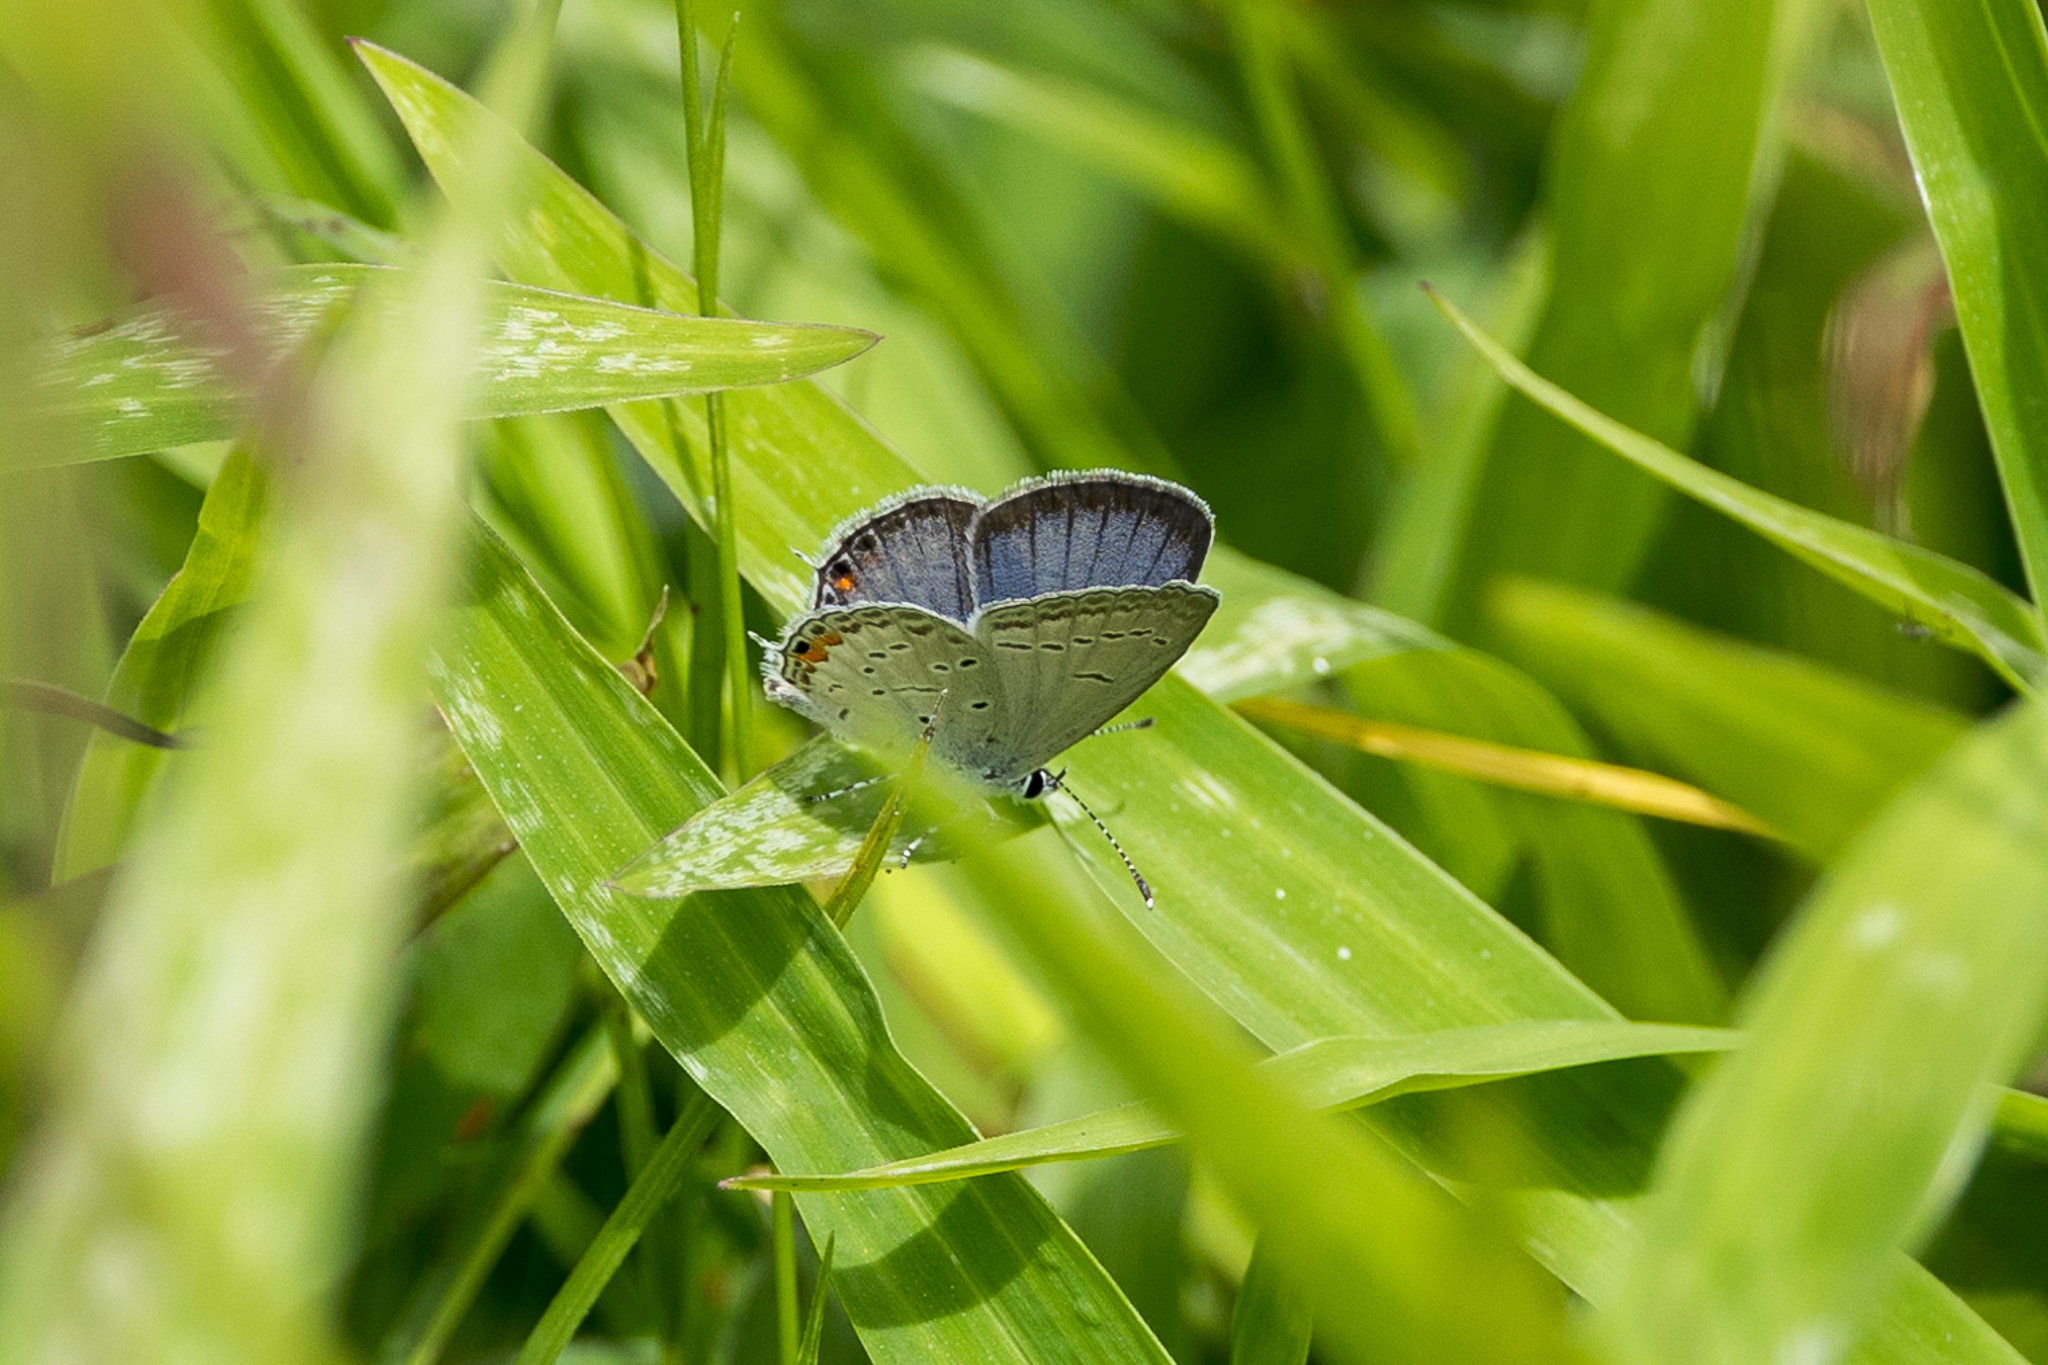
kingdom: Animalia
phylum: Arthropoda
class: Insecta
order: Lepidoptera
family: Lycaenidae
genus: Elkalyce
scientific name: Elkalyce comyntas
